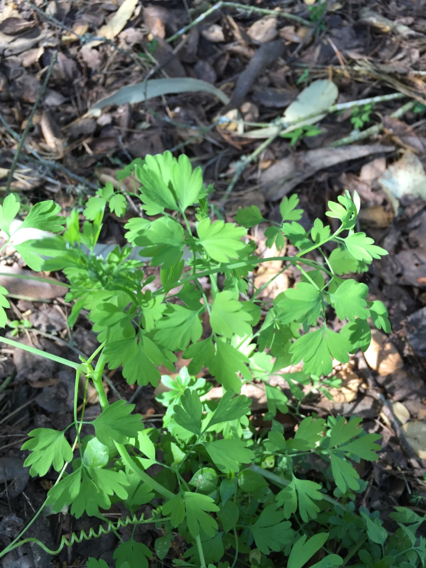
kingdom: Plantae
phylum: Tracheophyta
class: Magnoliopsida
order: Ranunculales
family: Papaveraceae
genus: Fumaria
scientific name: Fumaria
